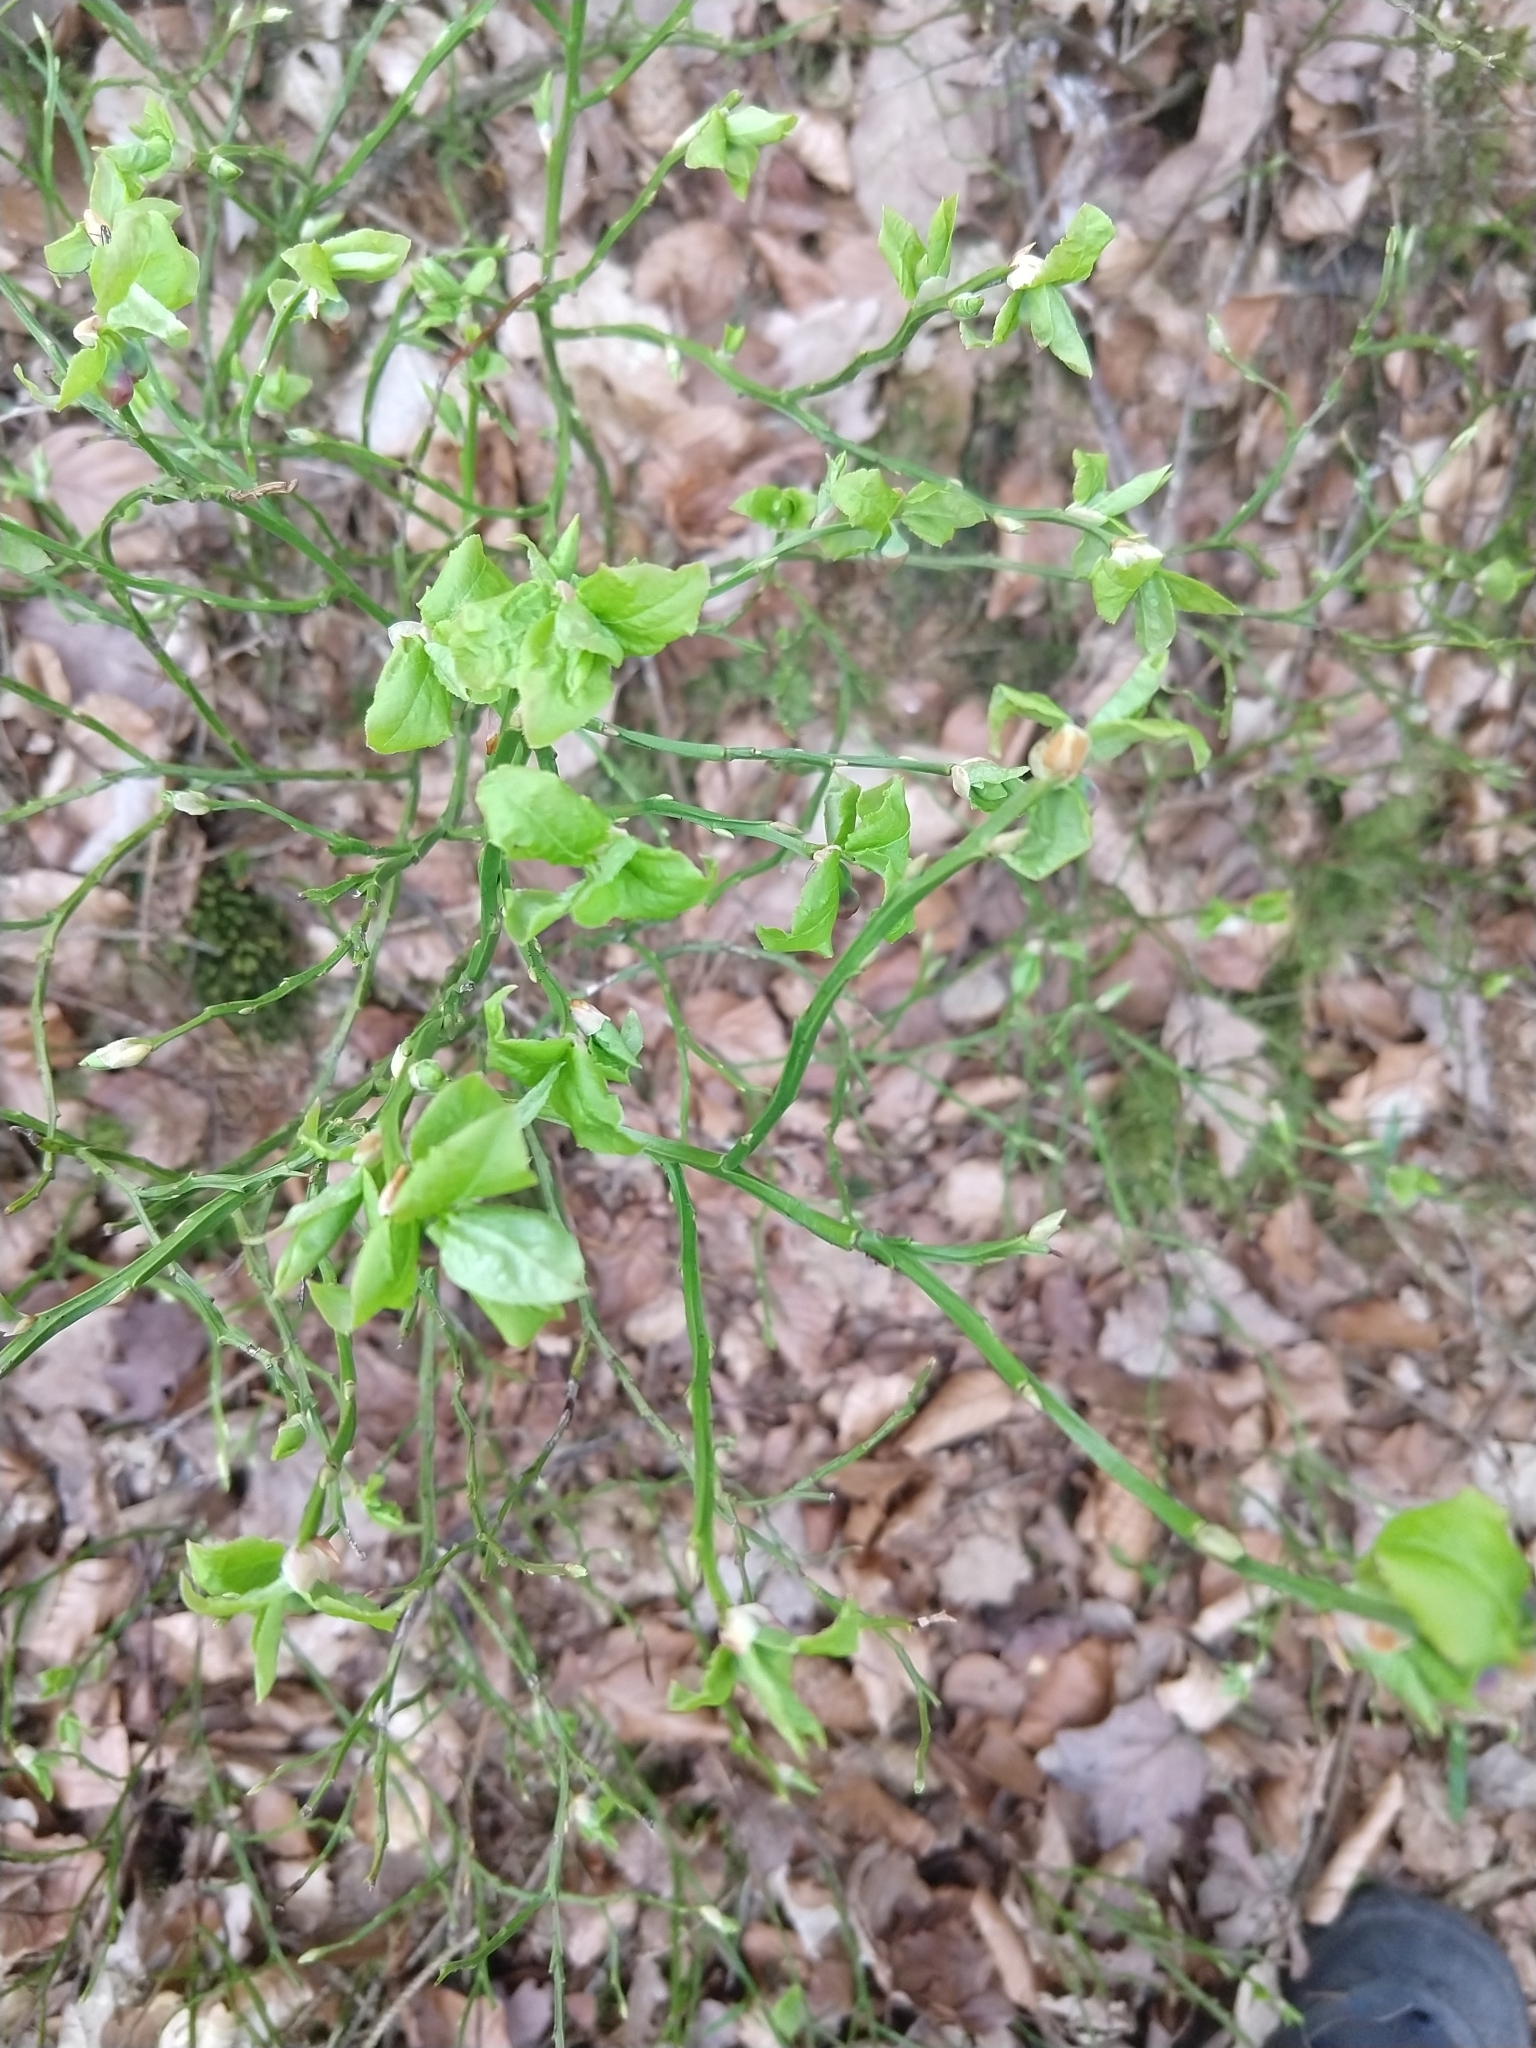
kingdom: Plantae
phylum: Tracheophyta
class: Magnoliopsida
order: Ericales
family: Ericaceae
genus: Vaccinium
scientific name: Vaccinium myrtillus
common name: Bilberry
